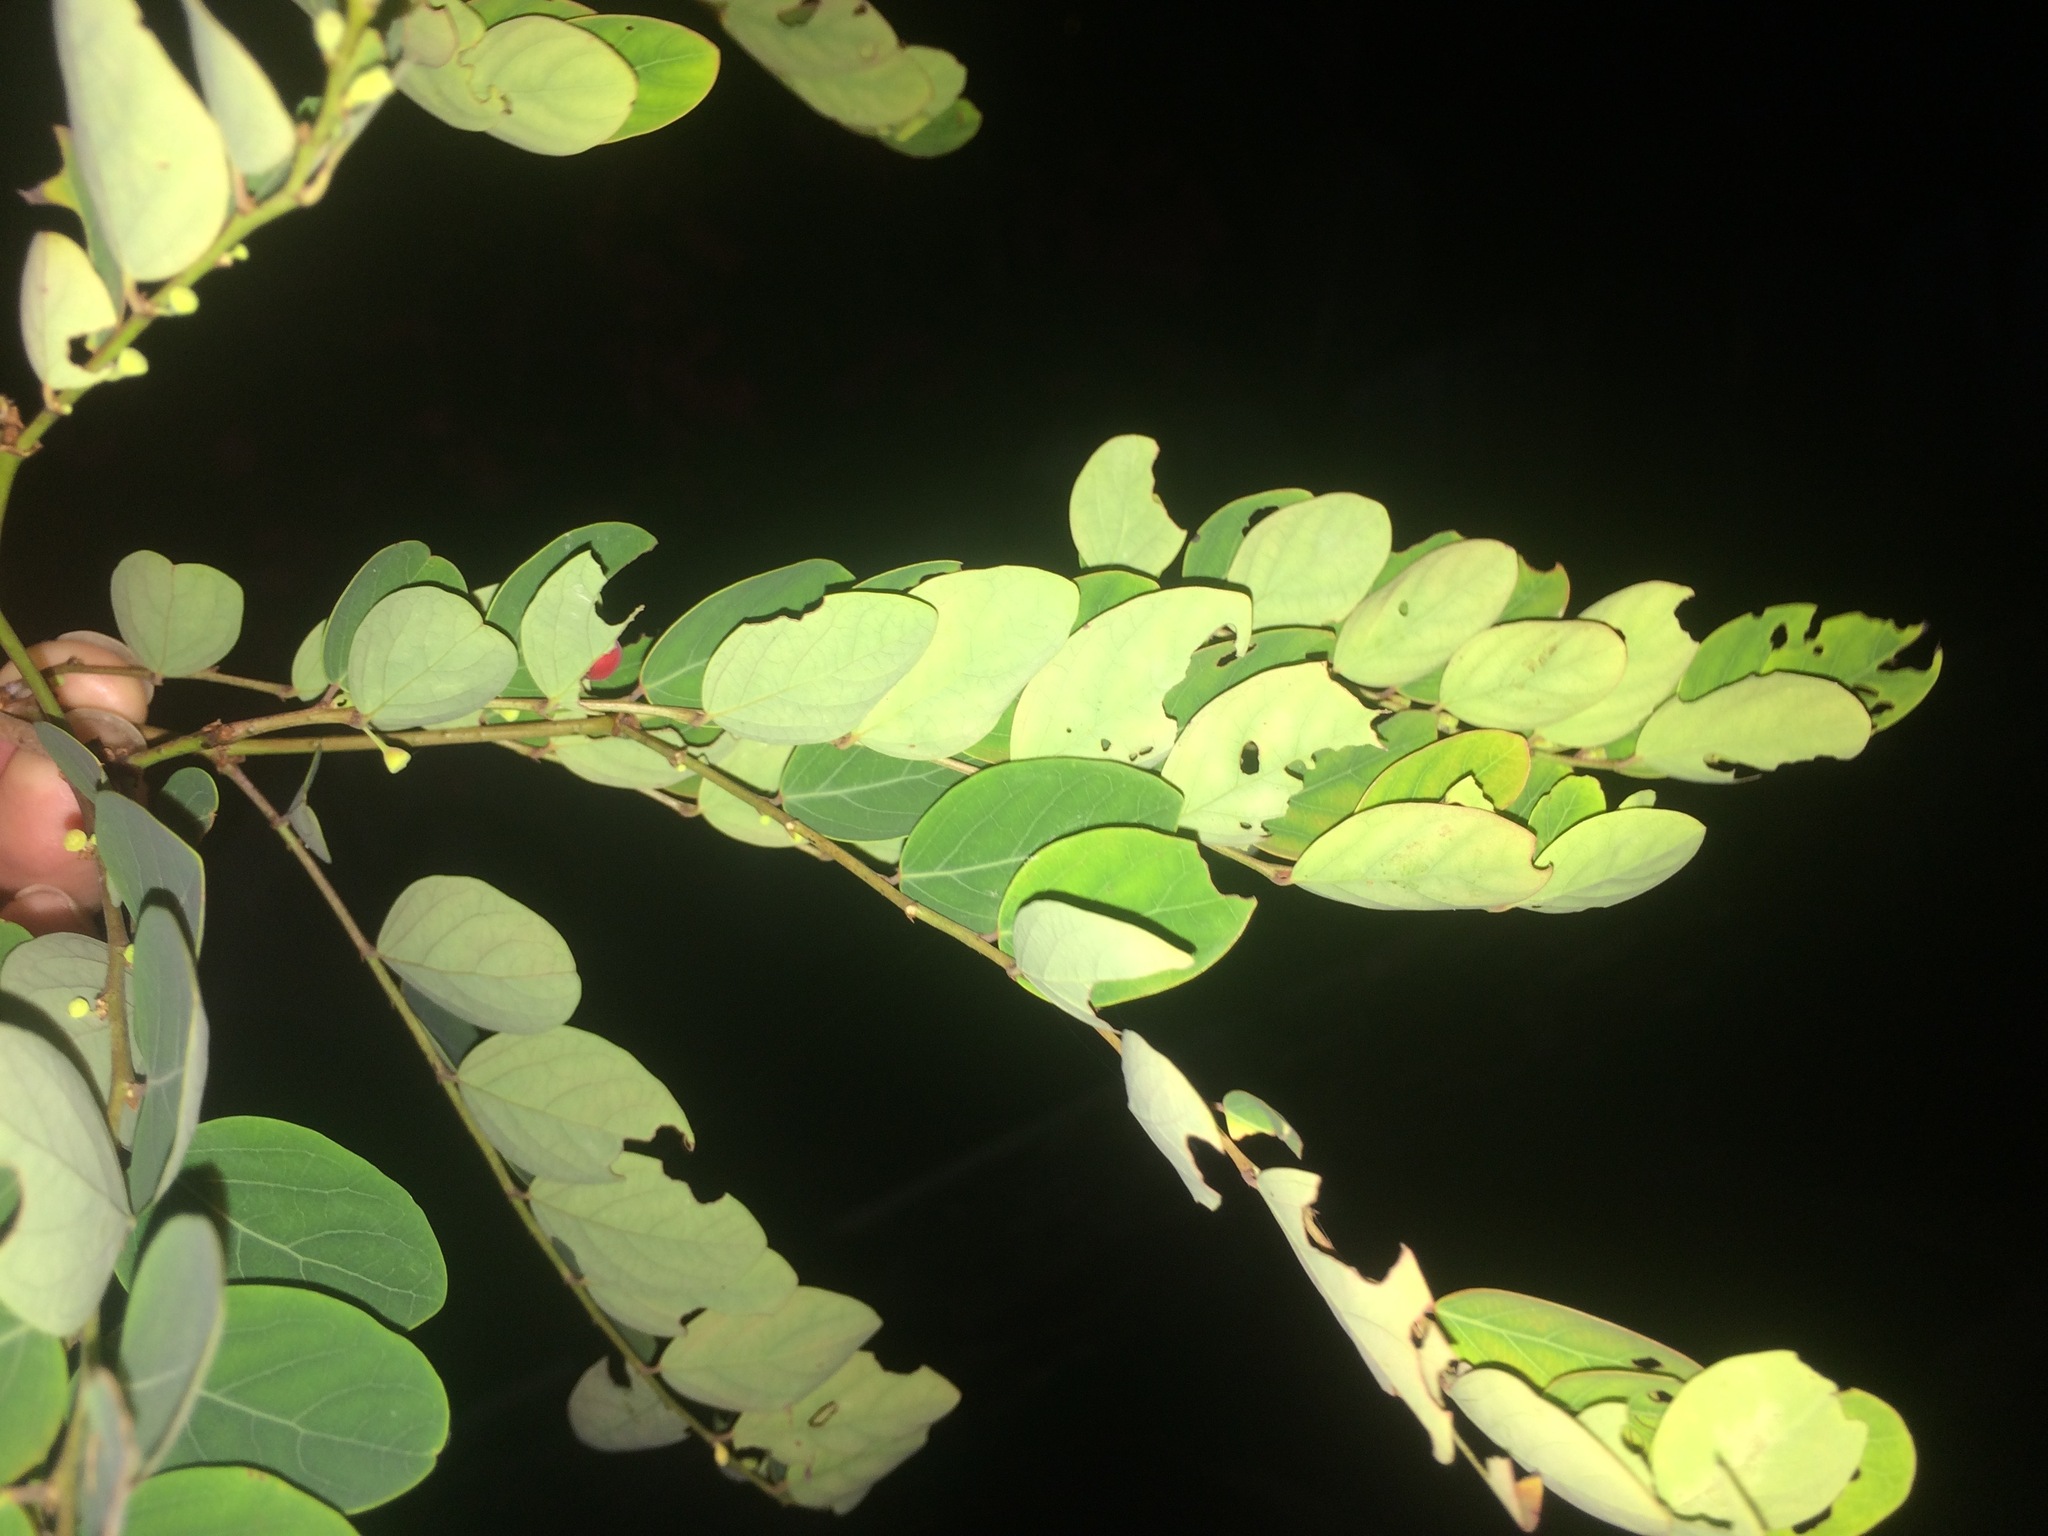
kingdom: Plantae
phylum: Tracheophyta
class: Magnoliopsida
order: Malpighiales
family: Phyllanthaceae
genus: Breynia
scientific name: Breynia vitis-idaea
